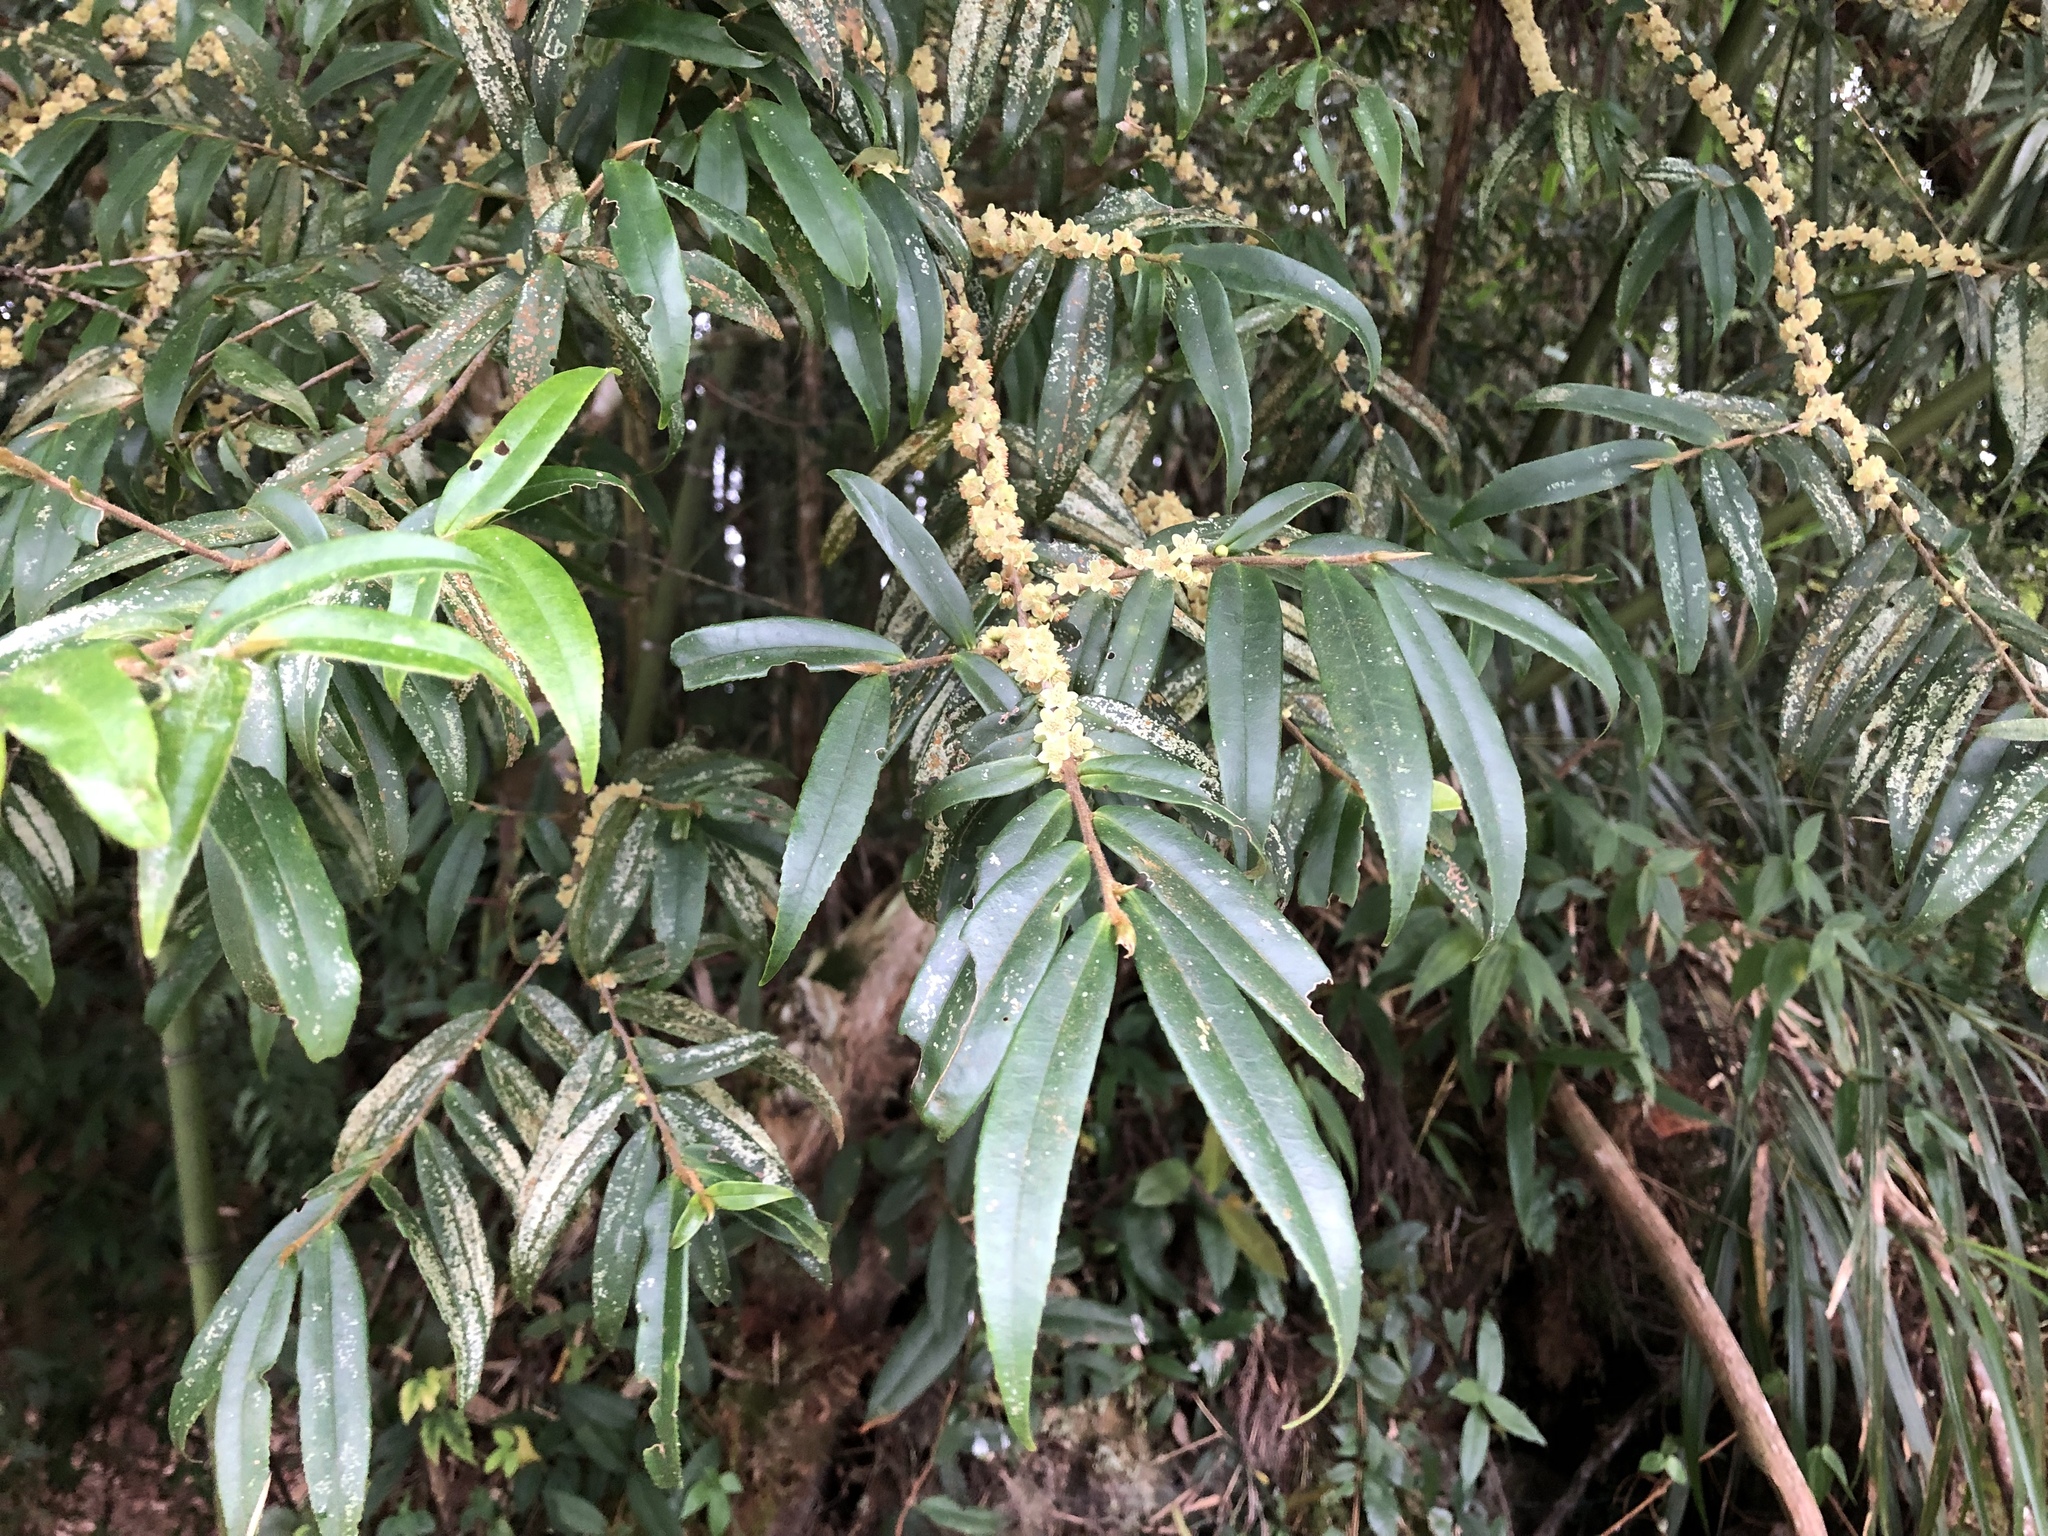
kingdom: Plantae
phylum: Tracheophyta
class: Magnoliopsida
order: Ericales
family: Pentaphylacaceae
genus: Eurya
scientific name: Eurya strigillosa
